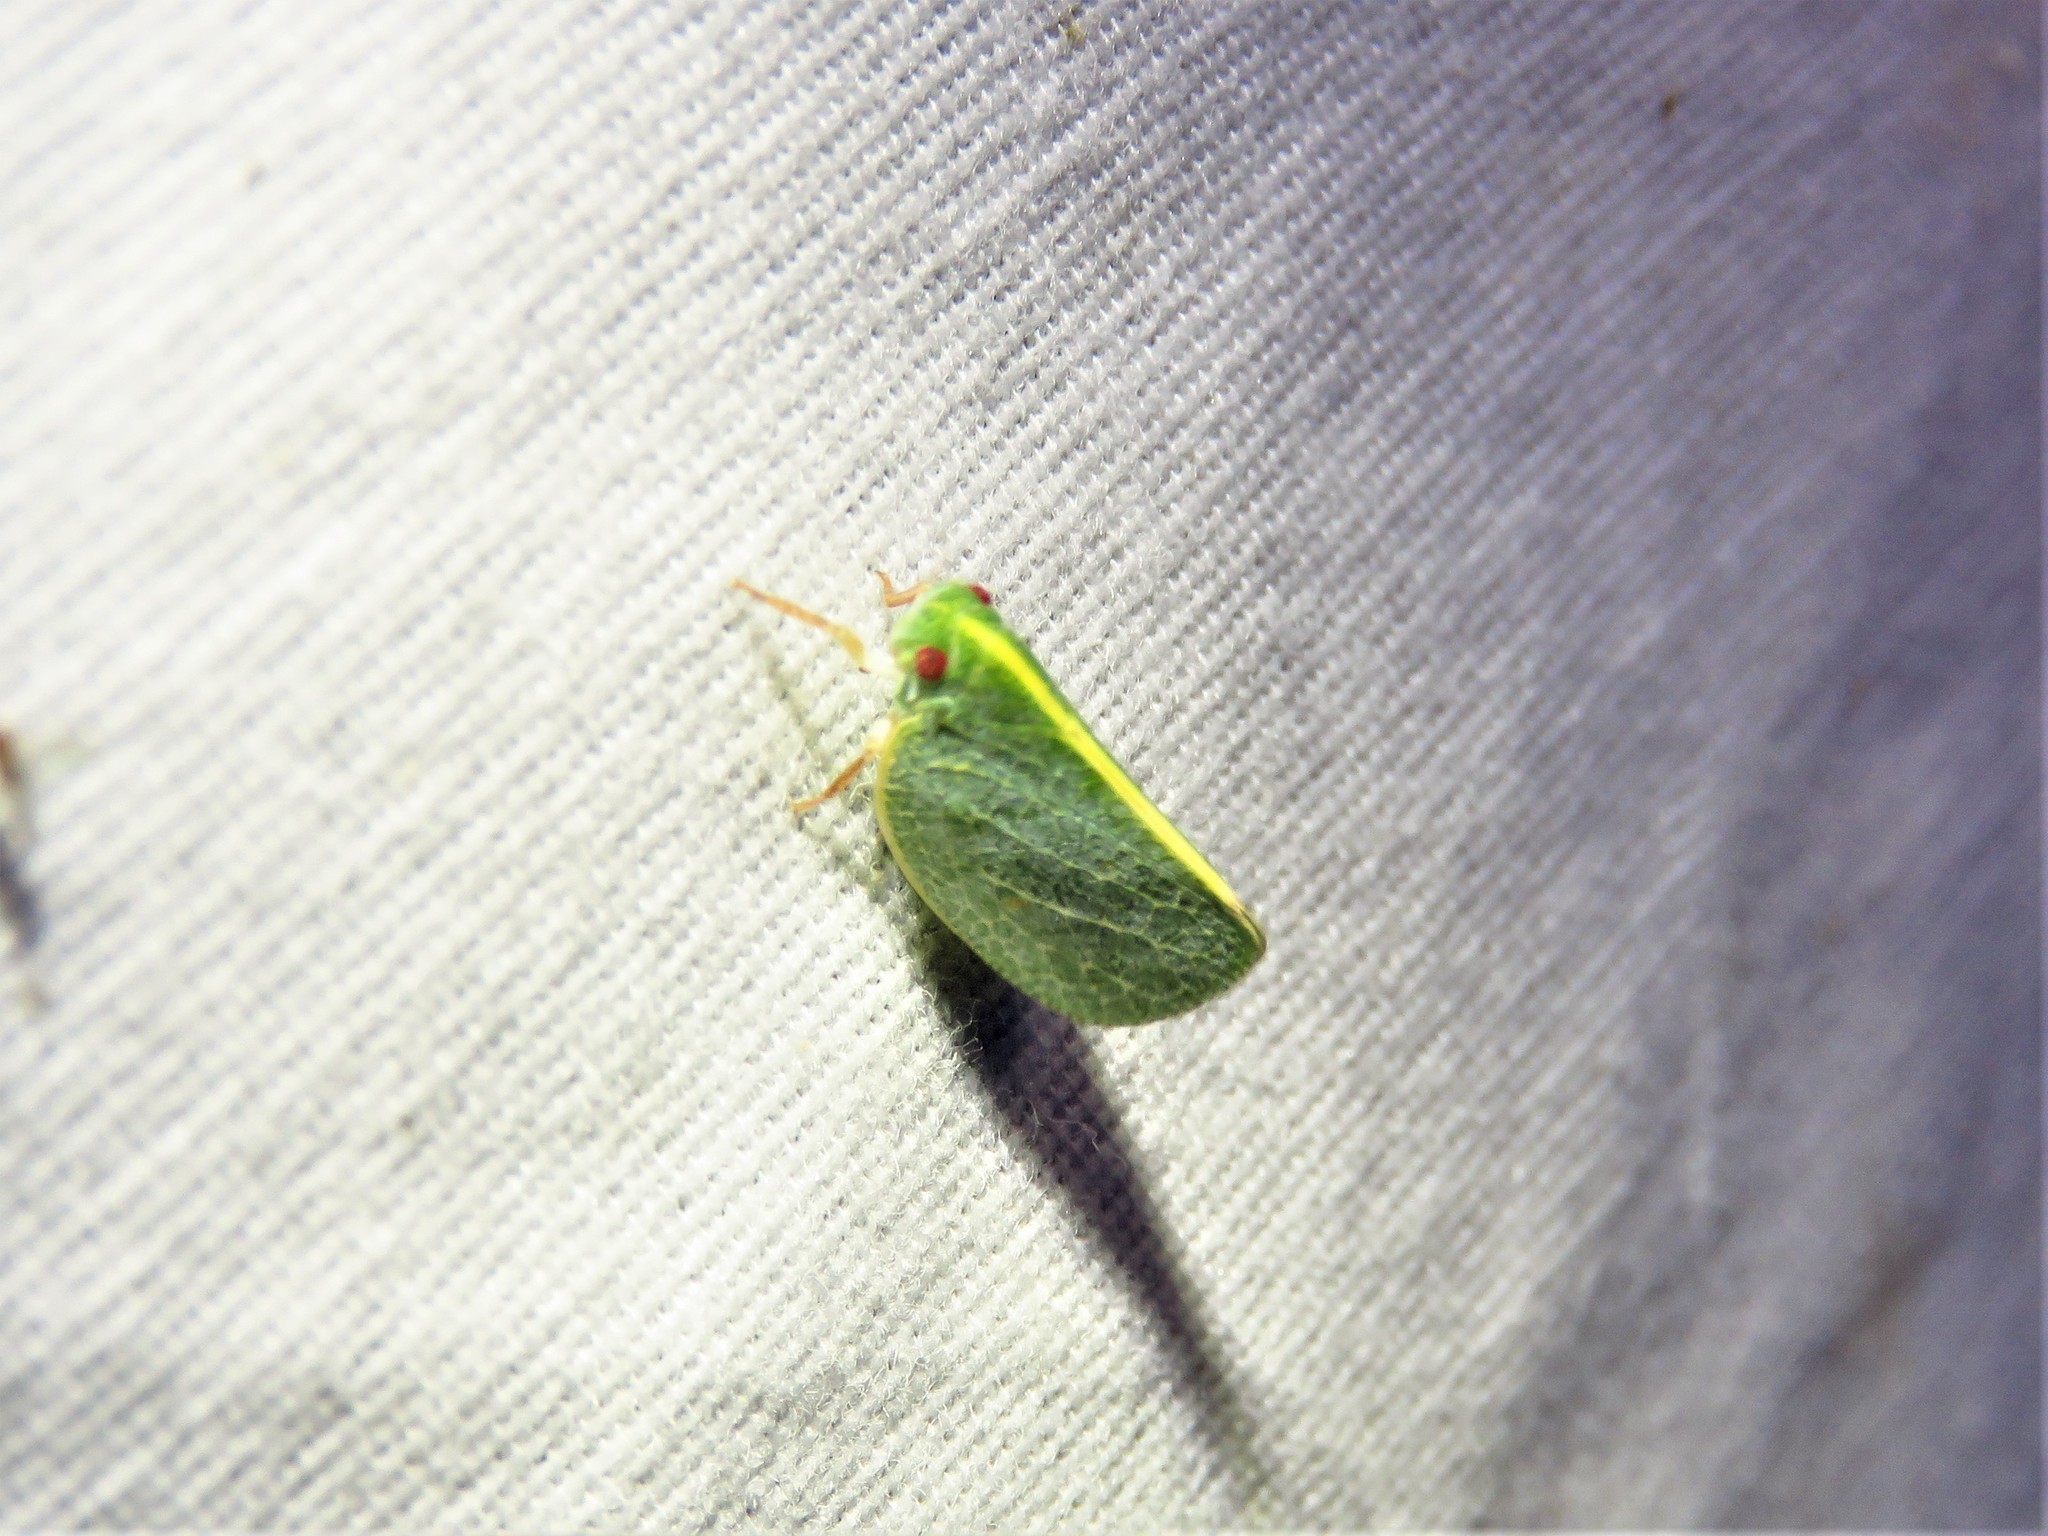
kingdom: Animalia
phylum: Arthropoda
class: Insecta
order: Hemiptera
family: Acanaloniidae
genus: Acanalonia
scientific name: Acanalonia servillei
